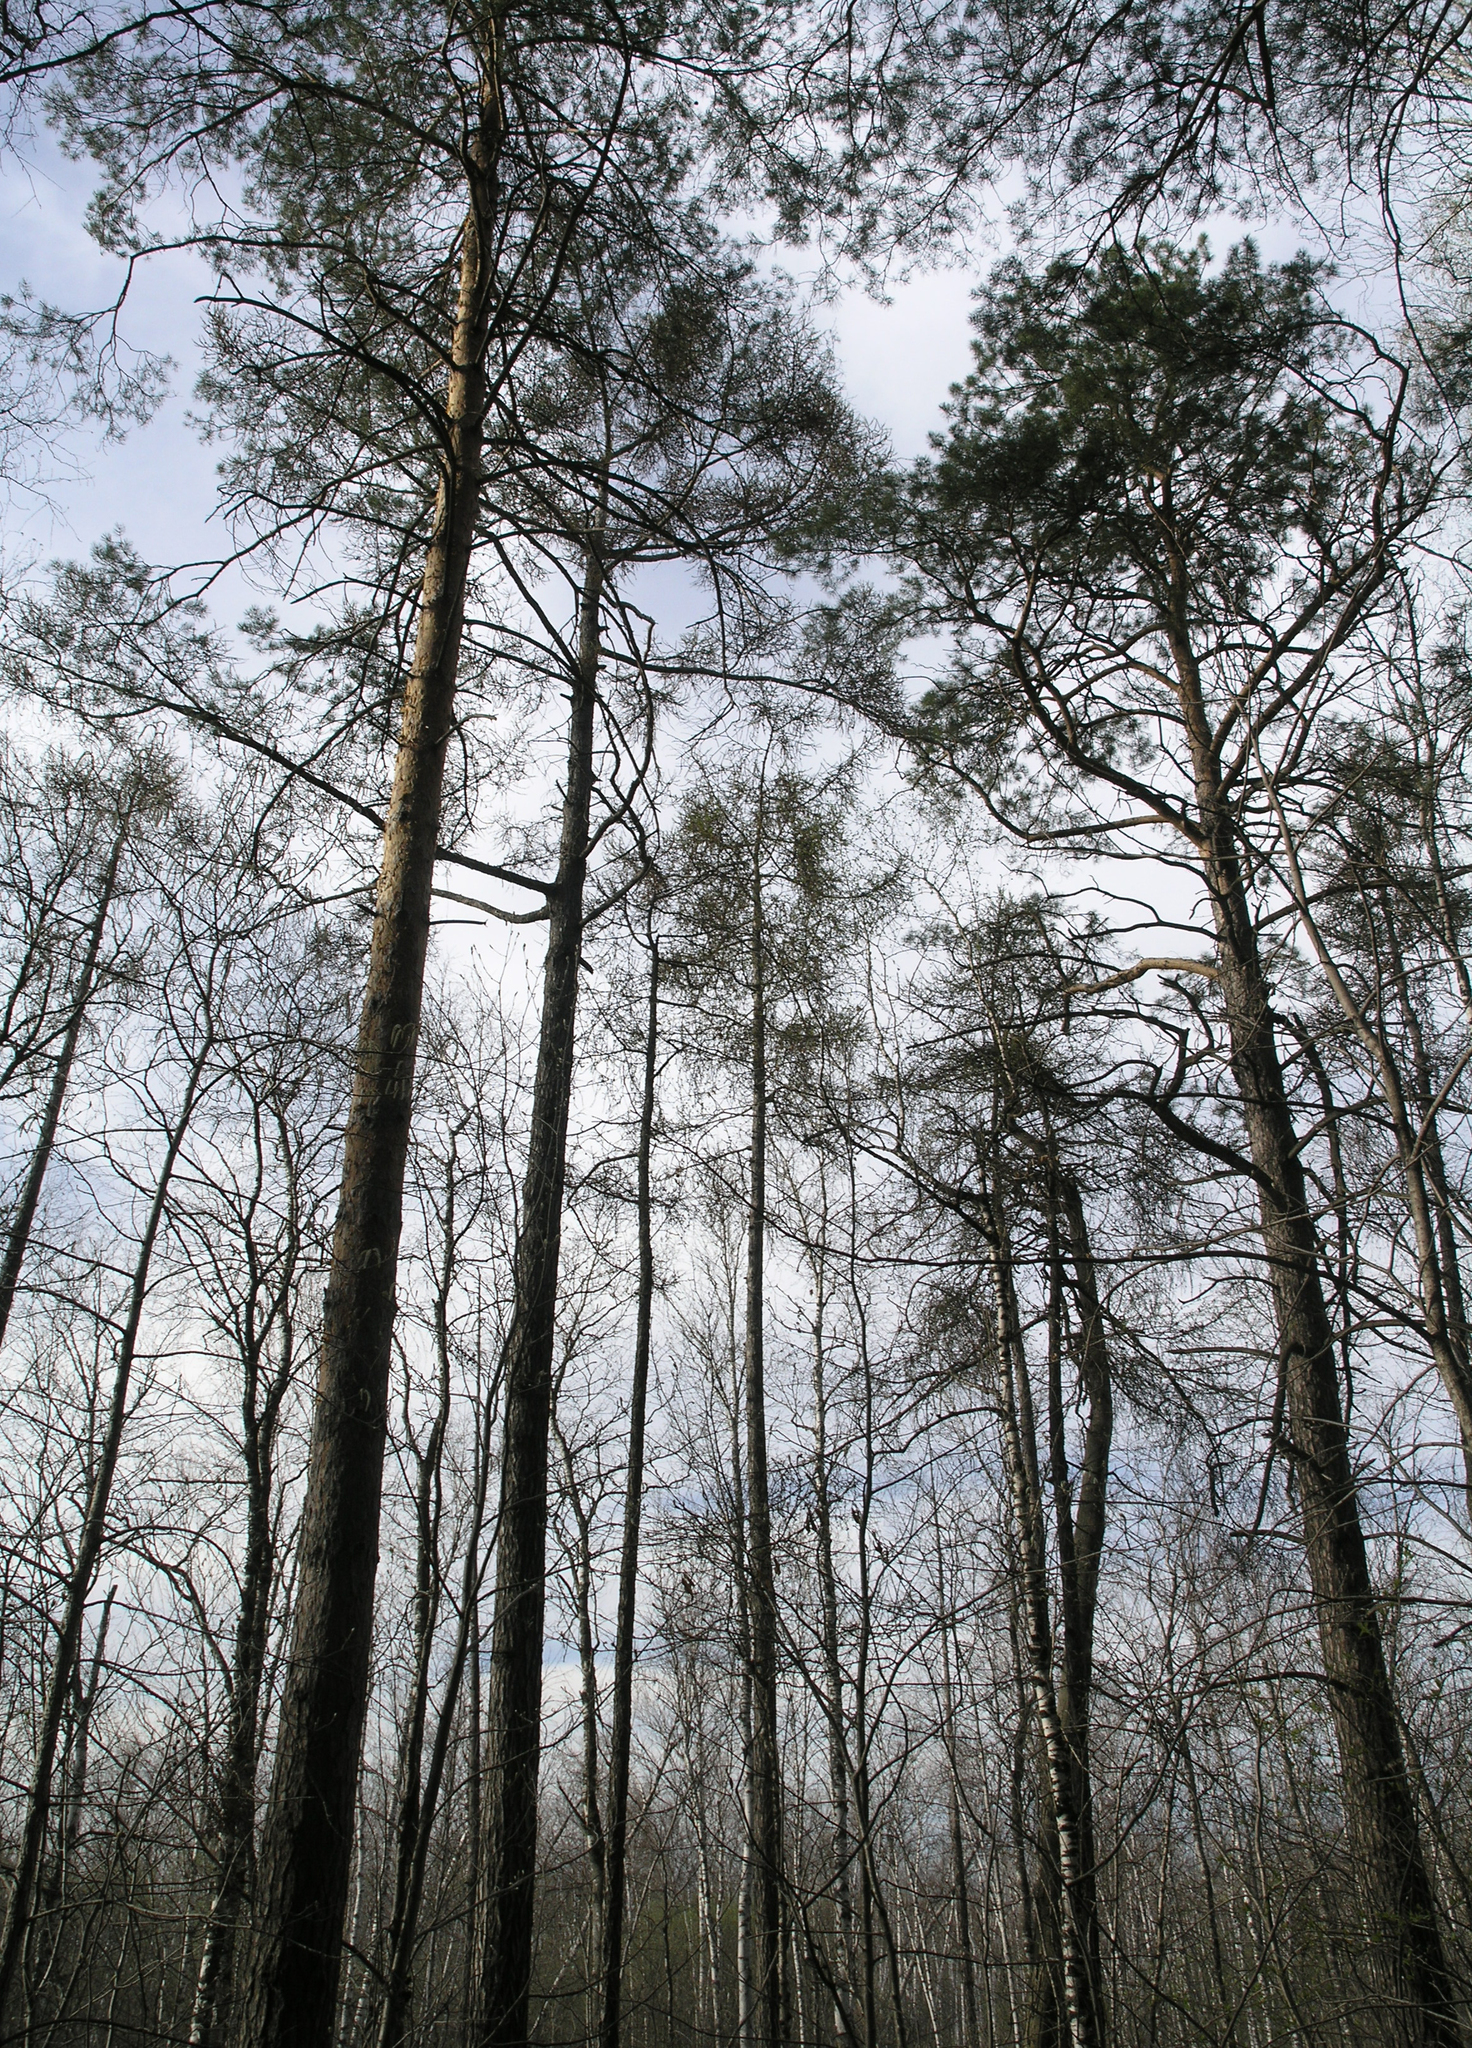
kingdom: Plantae
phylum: Tracheophyta
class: Pinopsida
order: Pinales
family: Pinaceae
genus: Larix
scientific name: Larix sibirica
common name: Siberian larch
